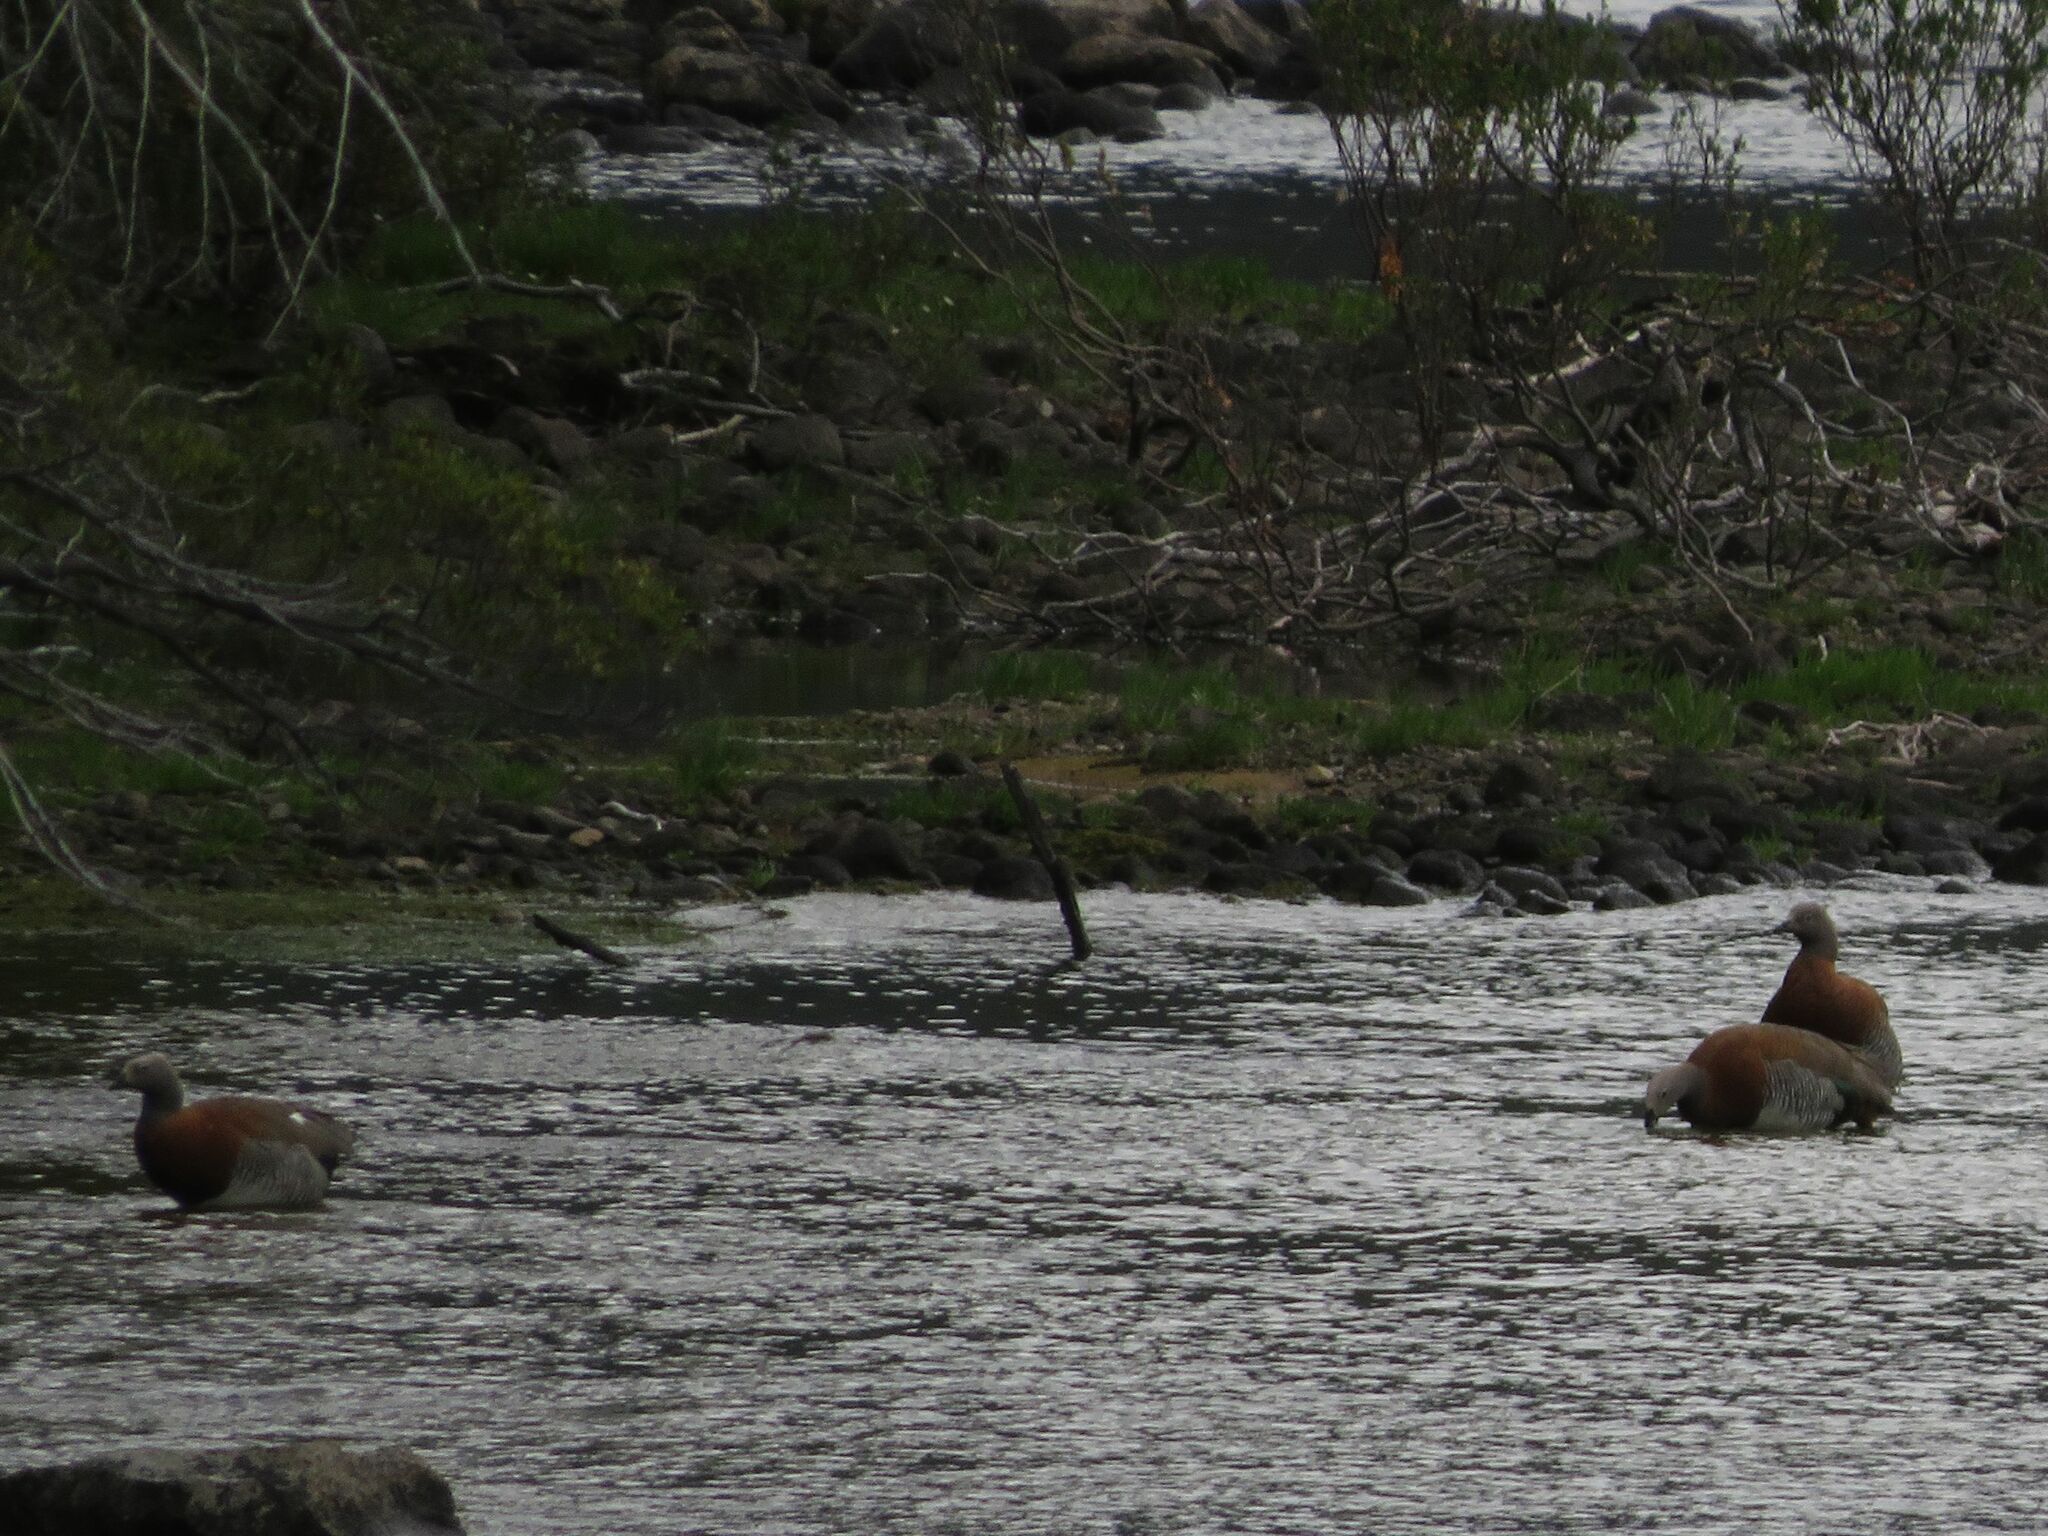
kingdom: Animalia
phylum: Chordata
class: Aves
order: Anseriformes
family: Anatidae
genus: Chloephaga
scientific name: Chloephaga poliocephala
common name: Ashy-headed goose
